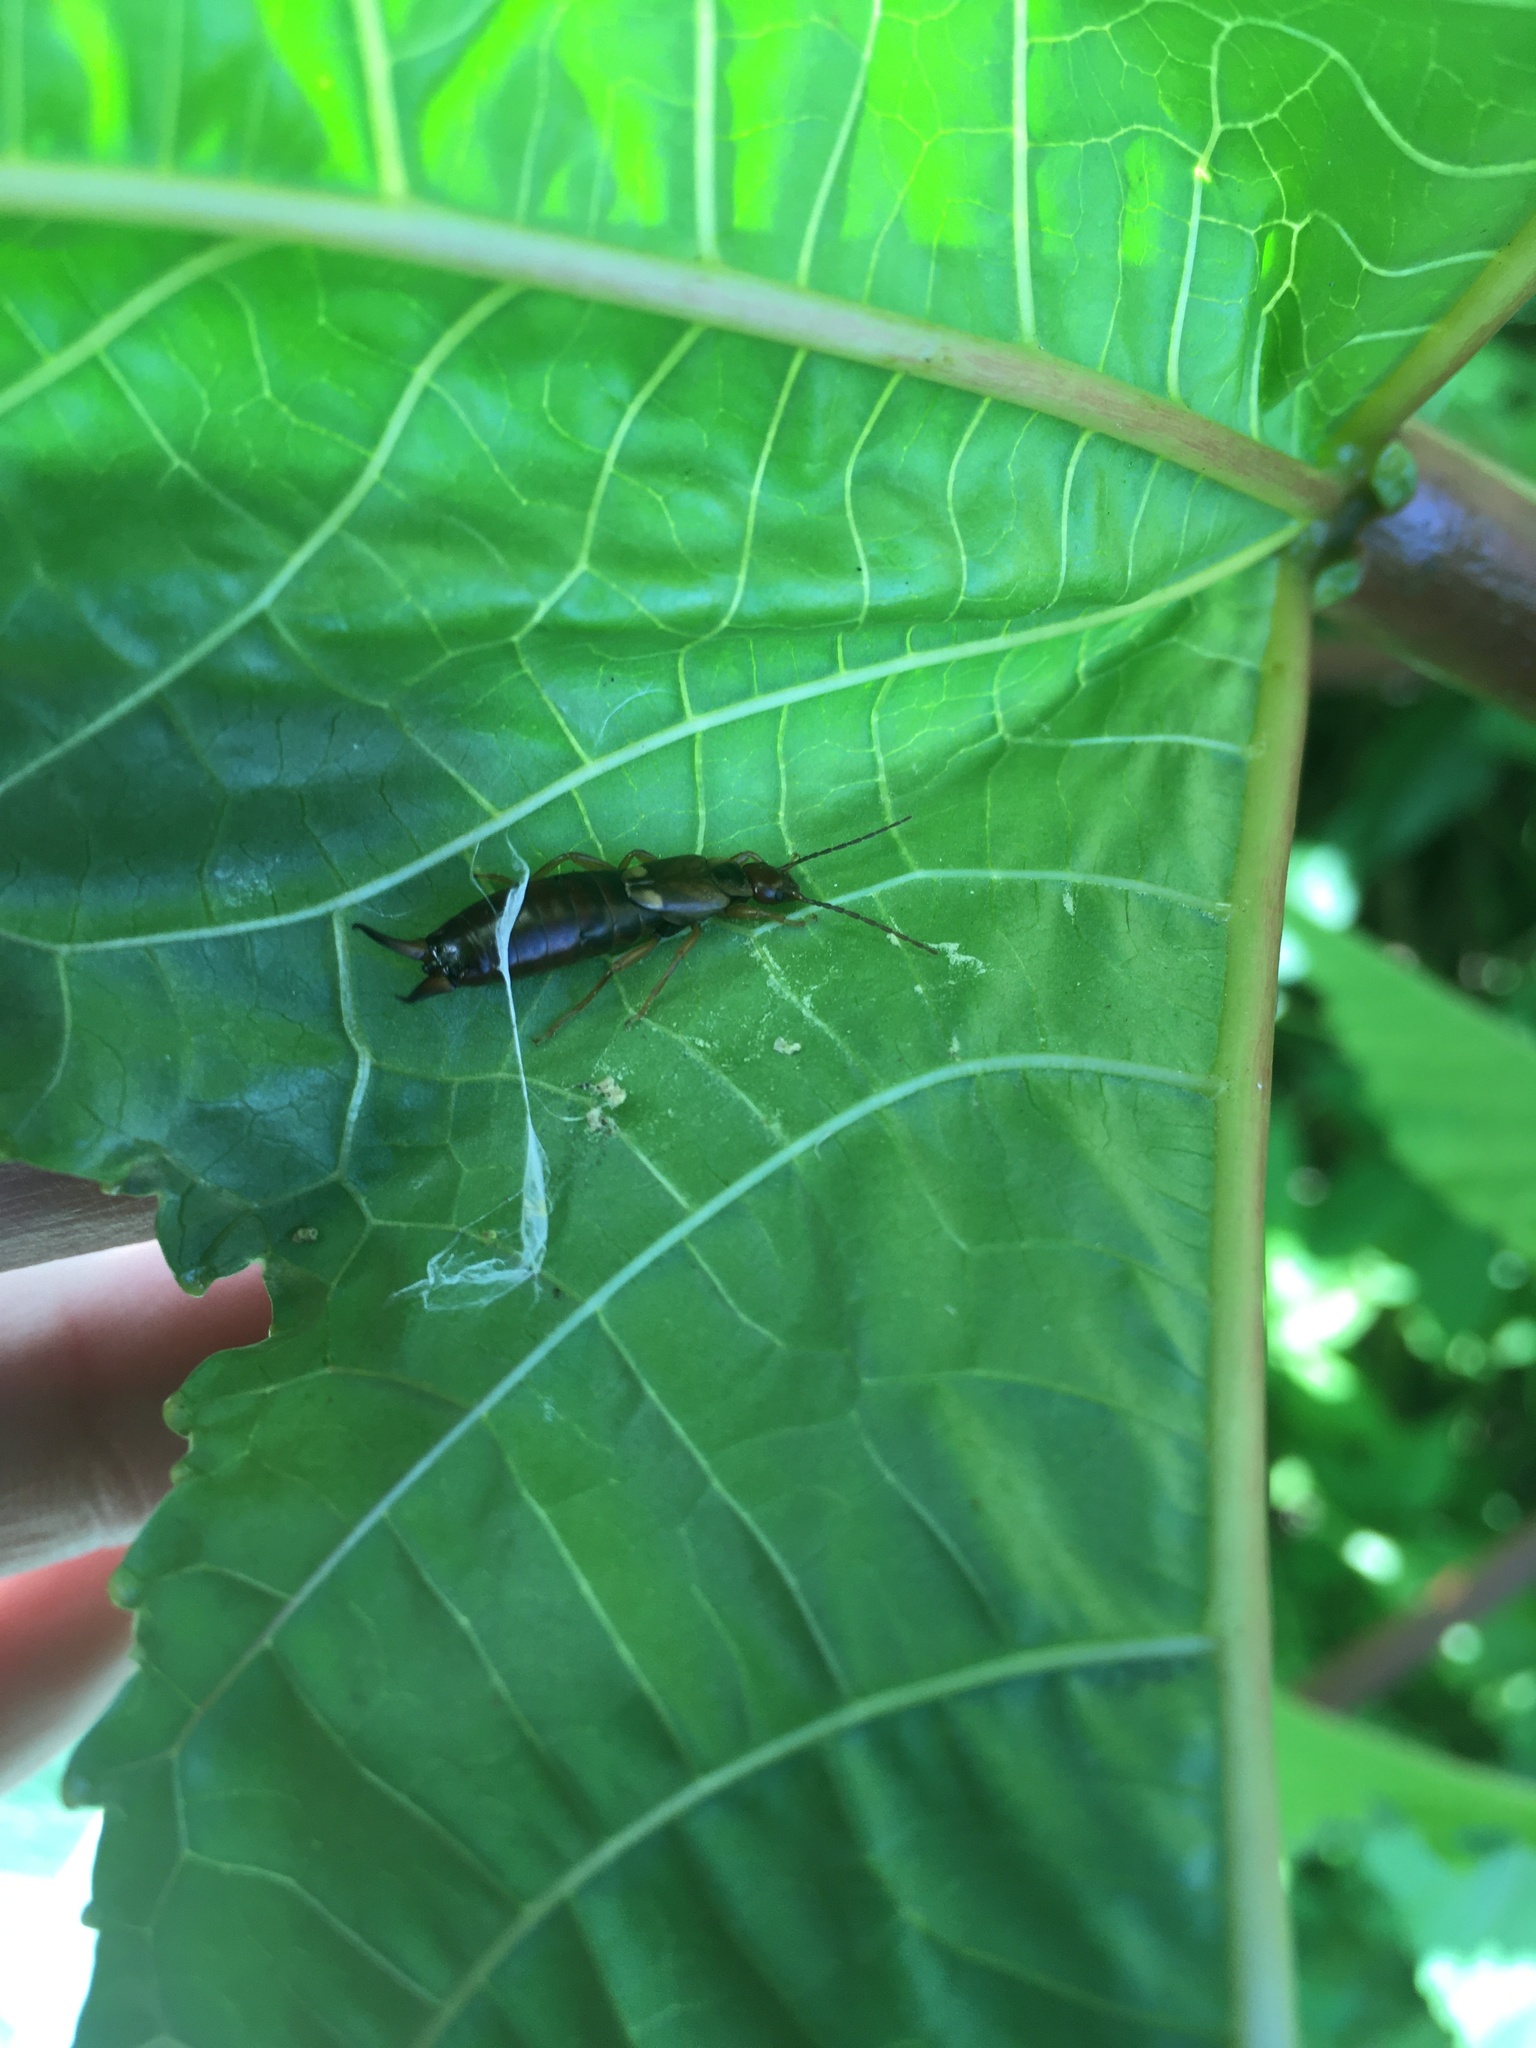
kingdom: Animalia
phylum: Arthropoda
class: Insecta
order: Dermaptera
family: Forficulidae
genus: Forficula
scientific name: Forficula
